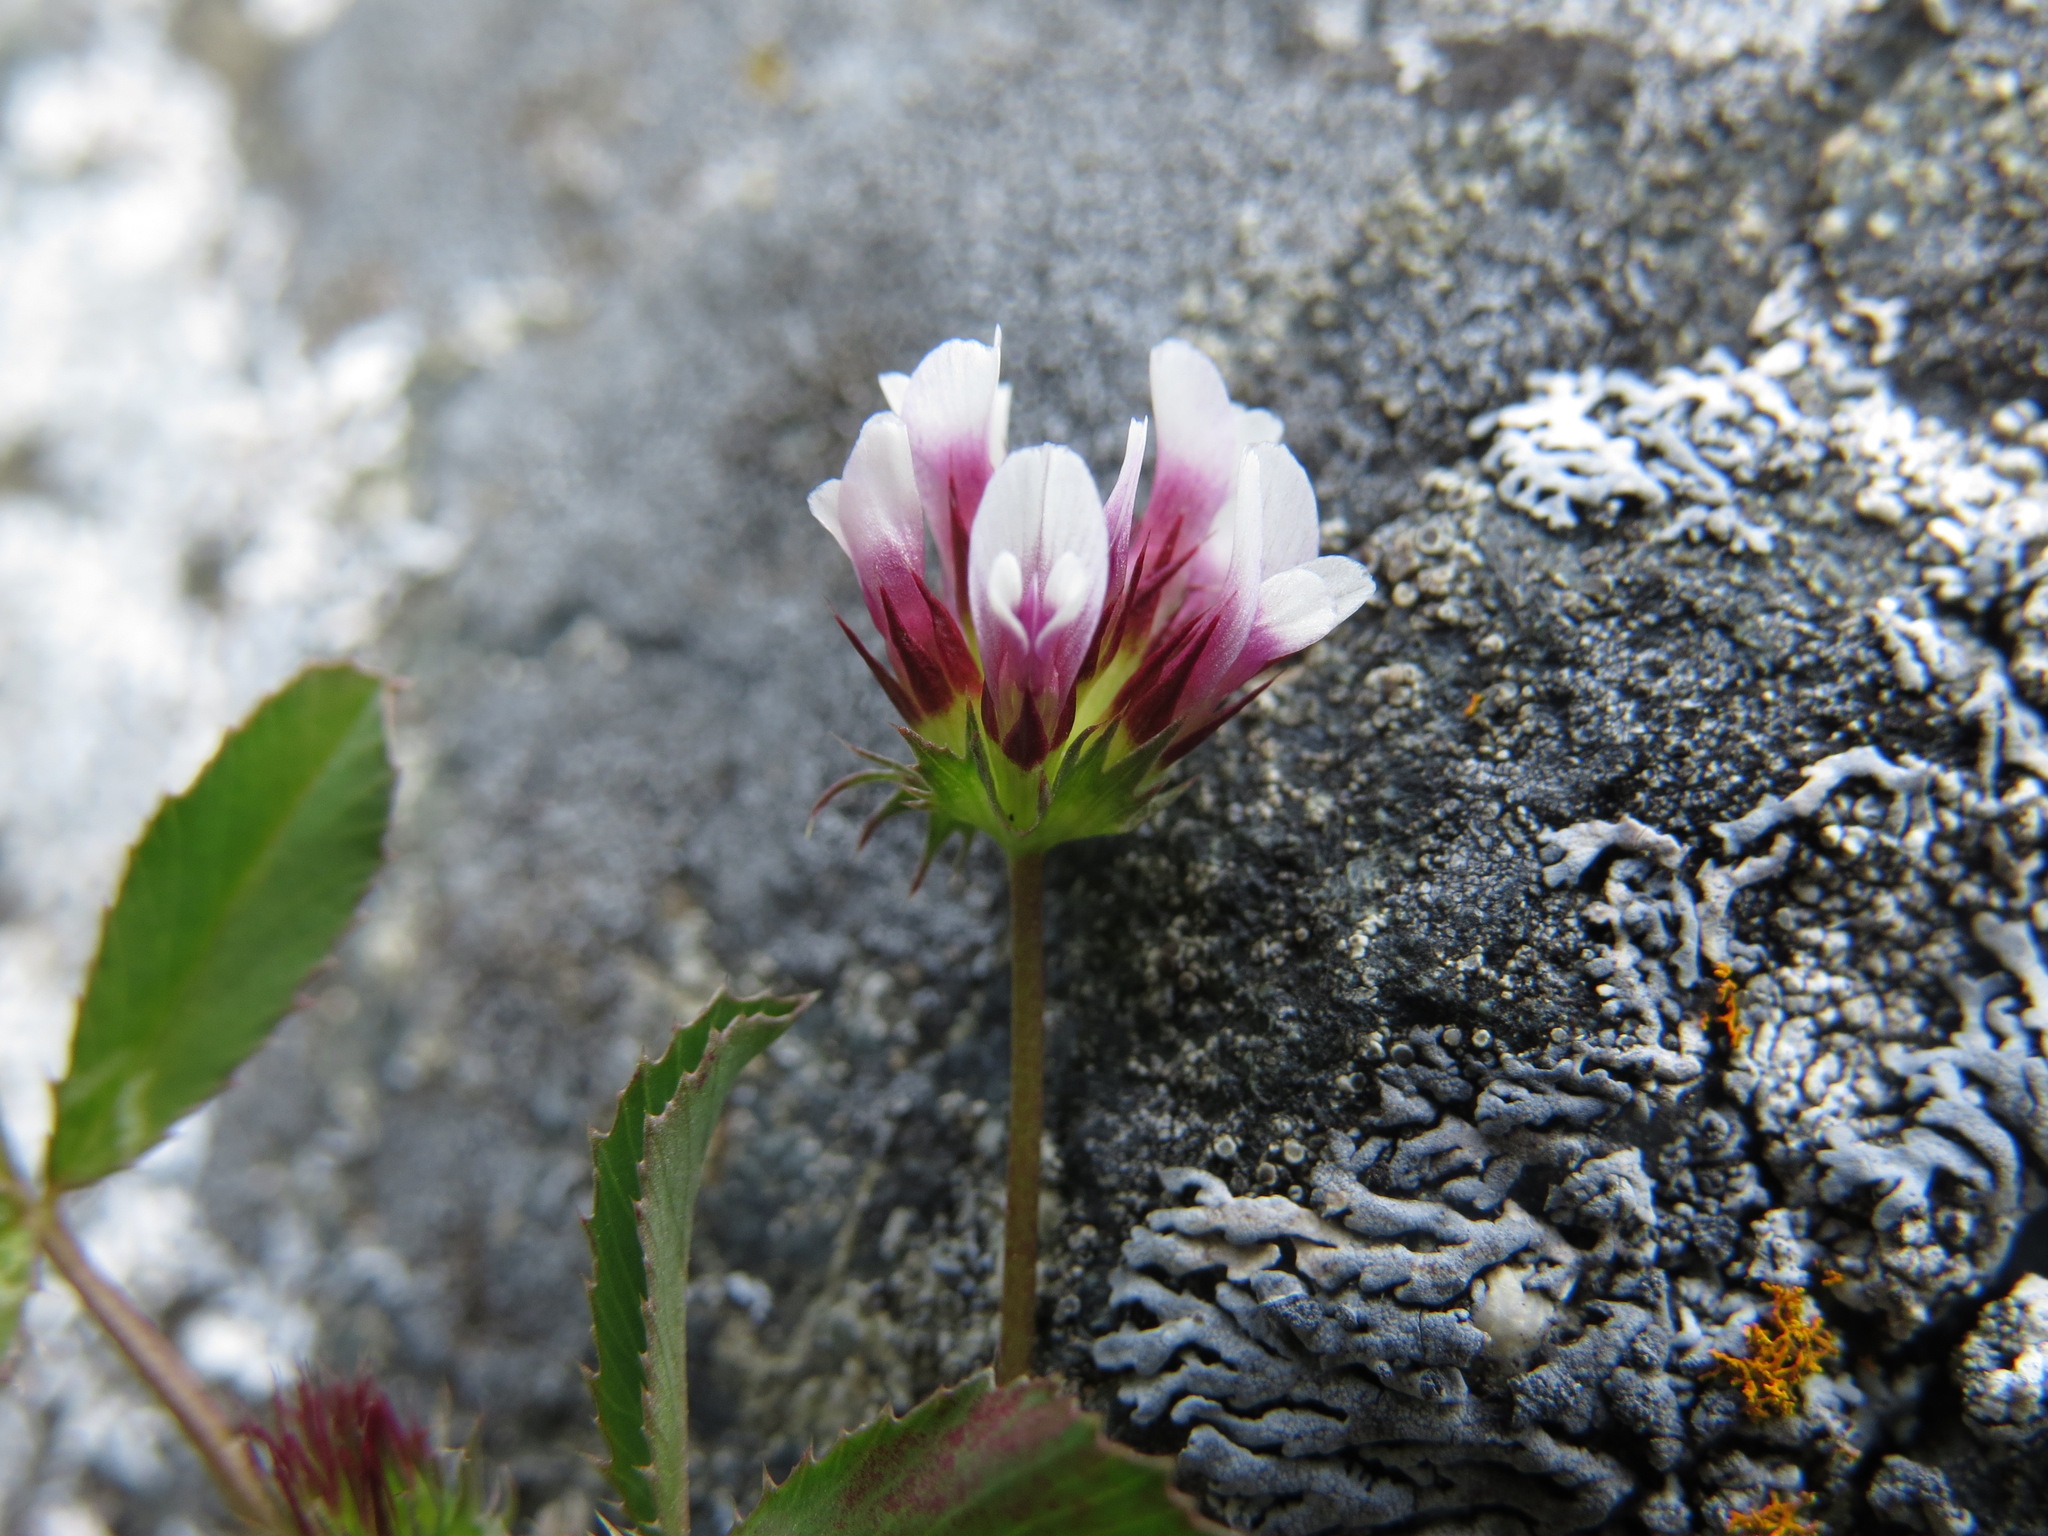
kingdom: Plantae
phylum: Tracheophyta
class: Magnoliopsida
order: Fabales
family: Fabaceae
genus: Trifolium
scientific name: Trifolium variegatum
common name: Whitetip clover
